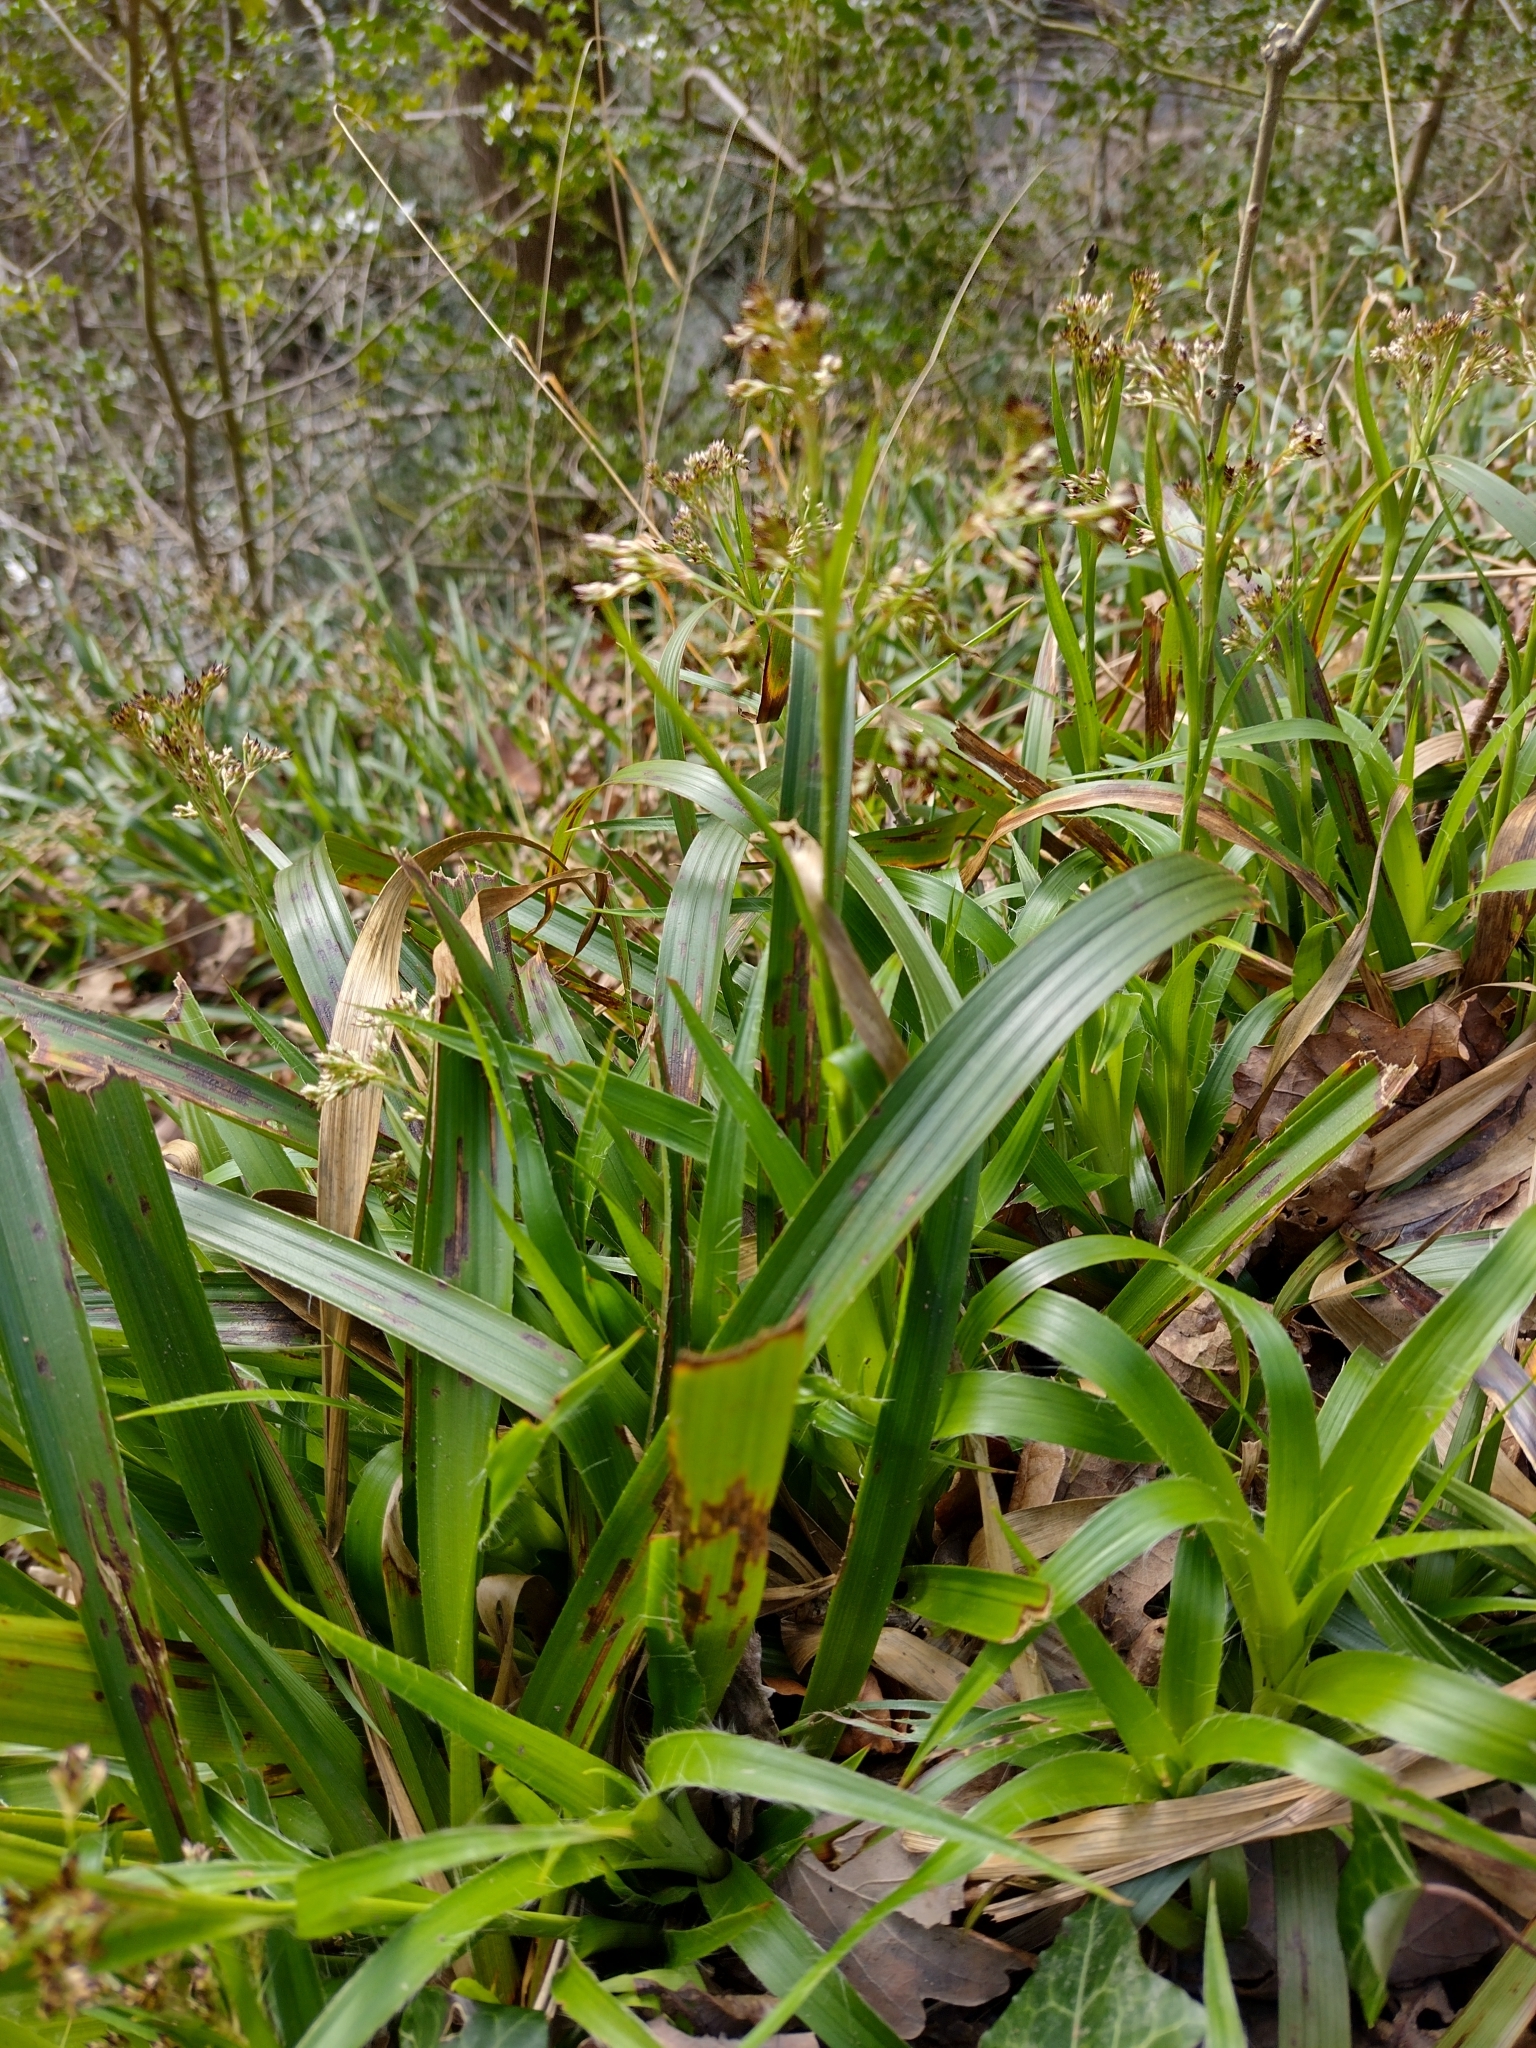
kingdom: Plantae
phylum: Tracheophyta
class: Liliopsida
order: Poales
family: Juncaceae
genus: Luzula
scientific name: Luzula sylvatica
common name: Great wood-rush
